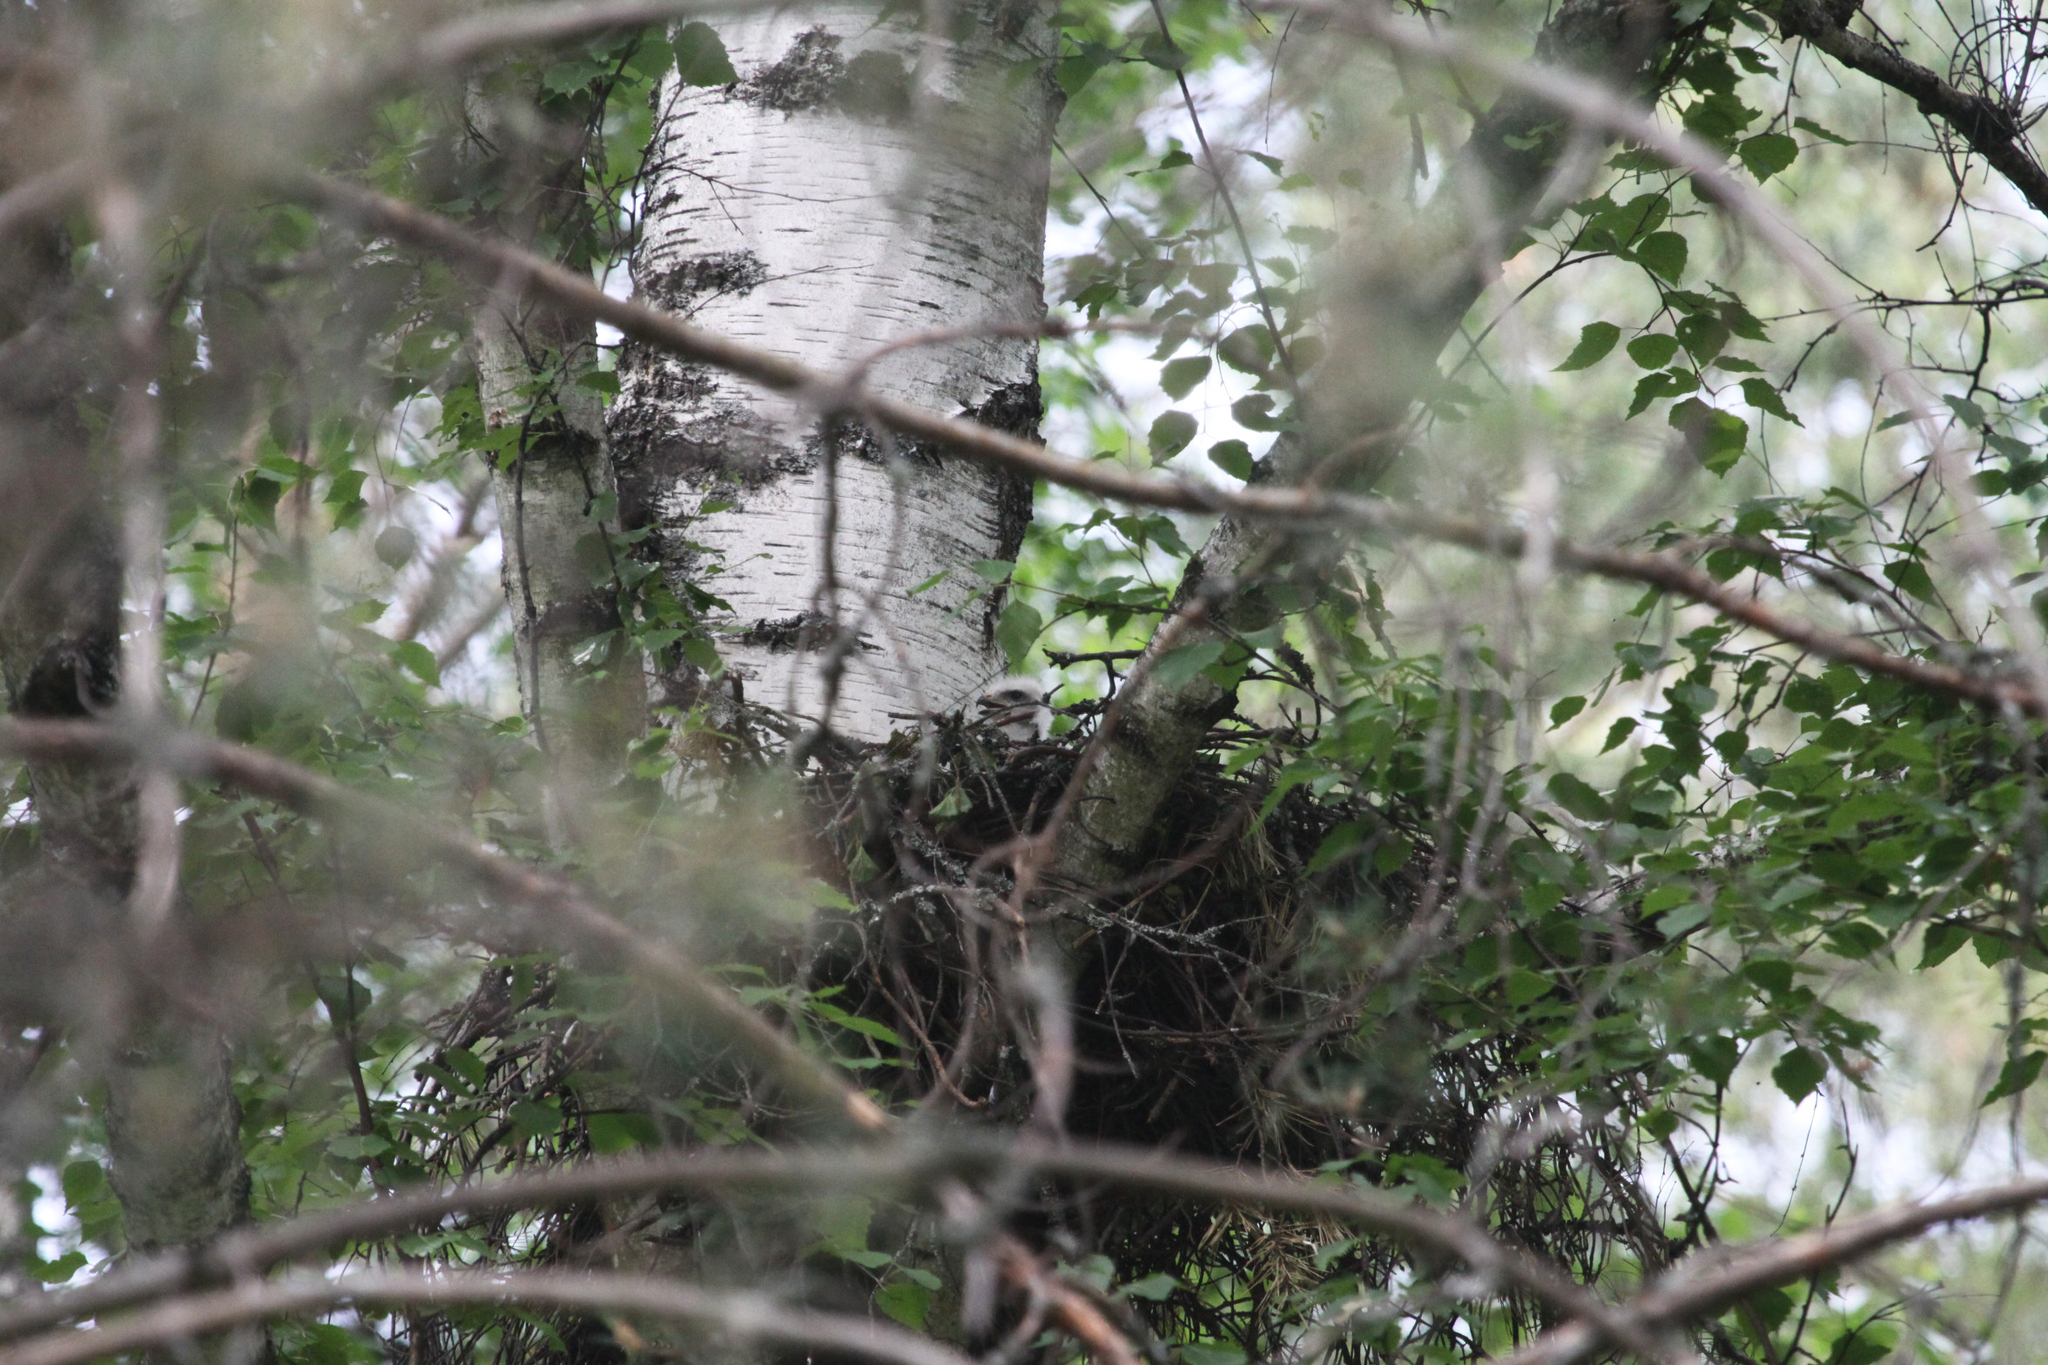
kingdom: Animalia
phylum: Chordata
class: Aves
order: Accipitriformes
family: Accipitridae
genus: Buteo
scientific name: Buteo buteo
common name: Common buzzard
